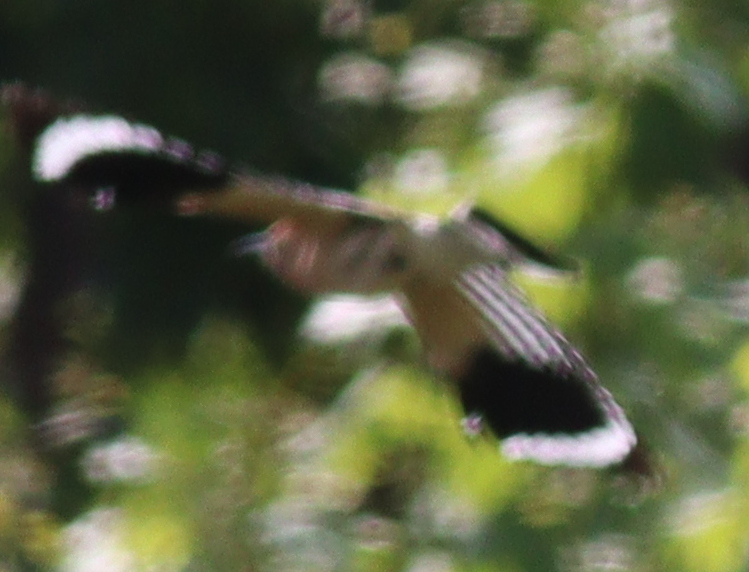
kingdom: Animalia
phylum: Chordata
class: Aves
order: Bucerotiformes
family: Upupidae
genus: Upupa
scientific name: Upupa epops
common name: Eurasian hoopoe
